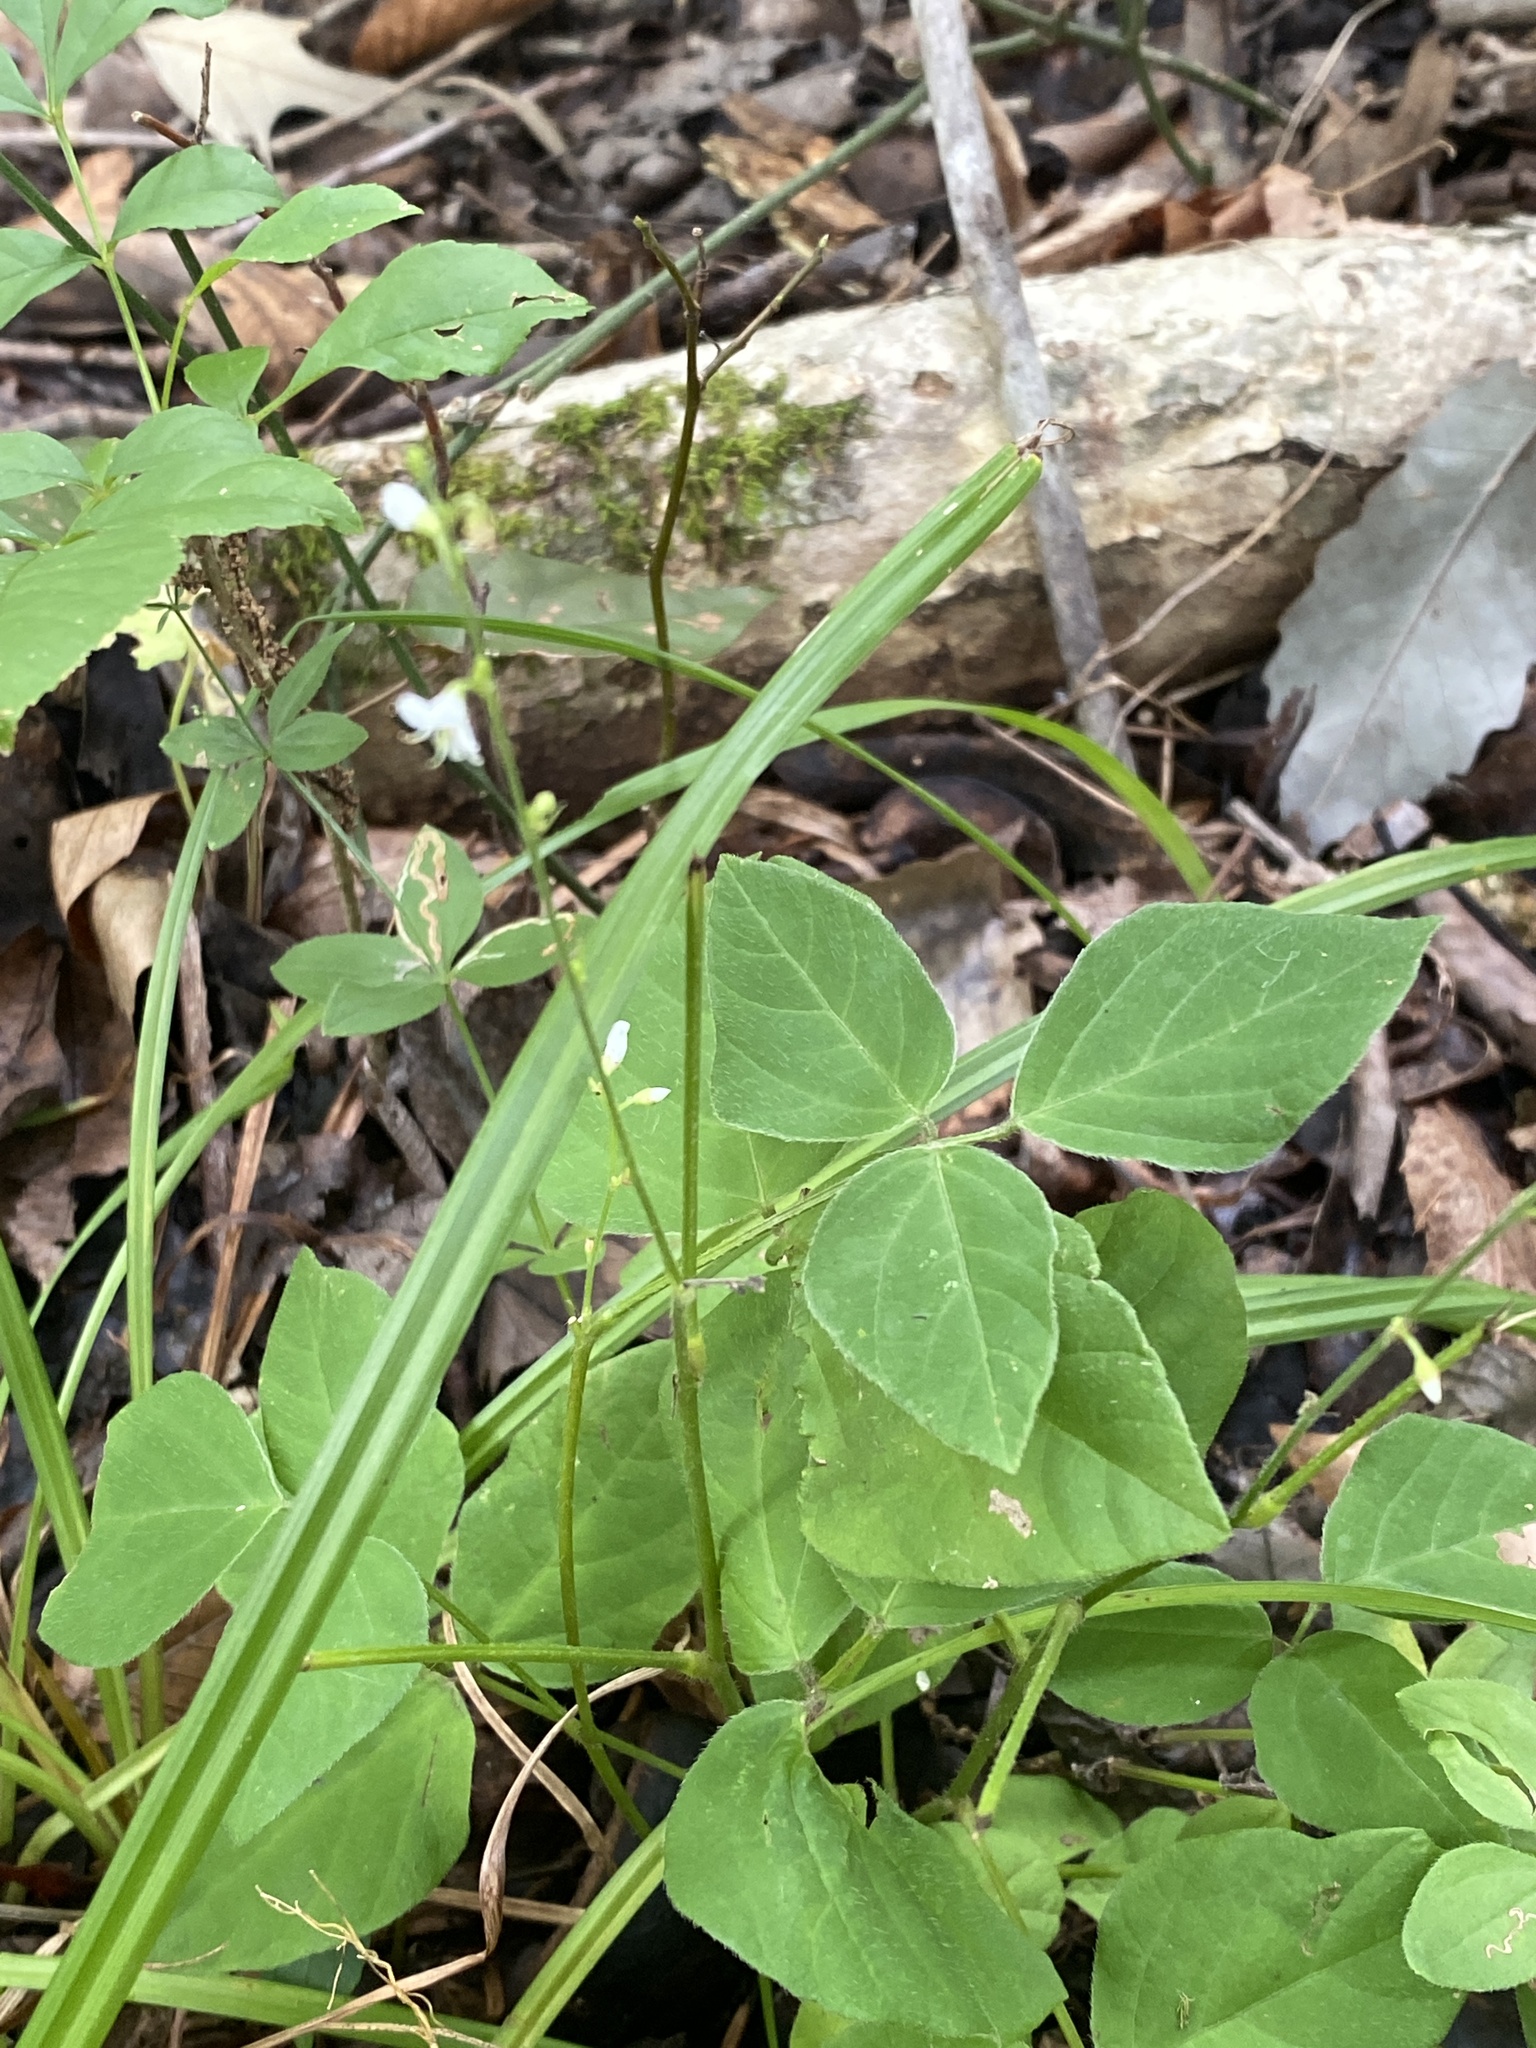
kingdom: Plantae
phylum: Tracheophyta
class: Magnoliopsida
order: Fabales
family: Fabaceae
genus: Hylodesmum
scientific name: Hylodesmum pauciflorum
